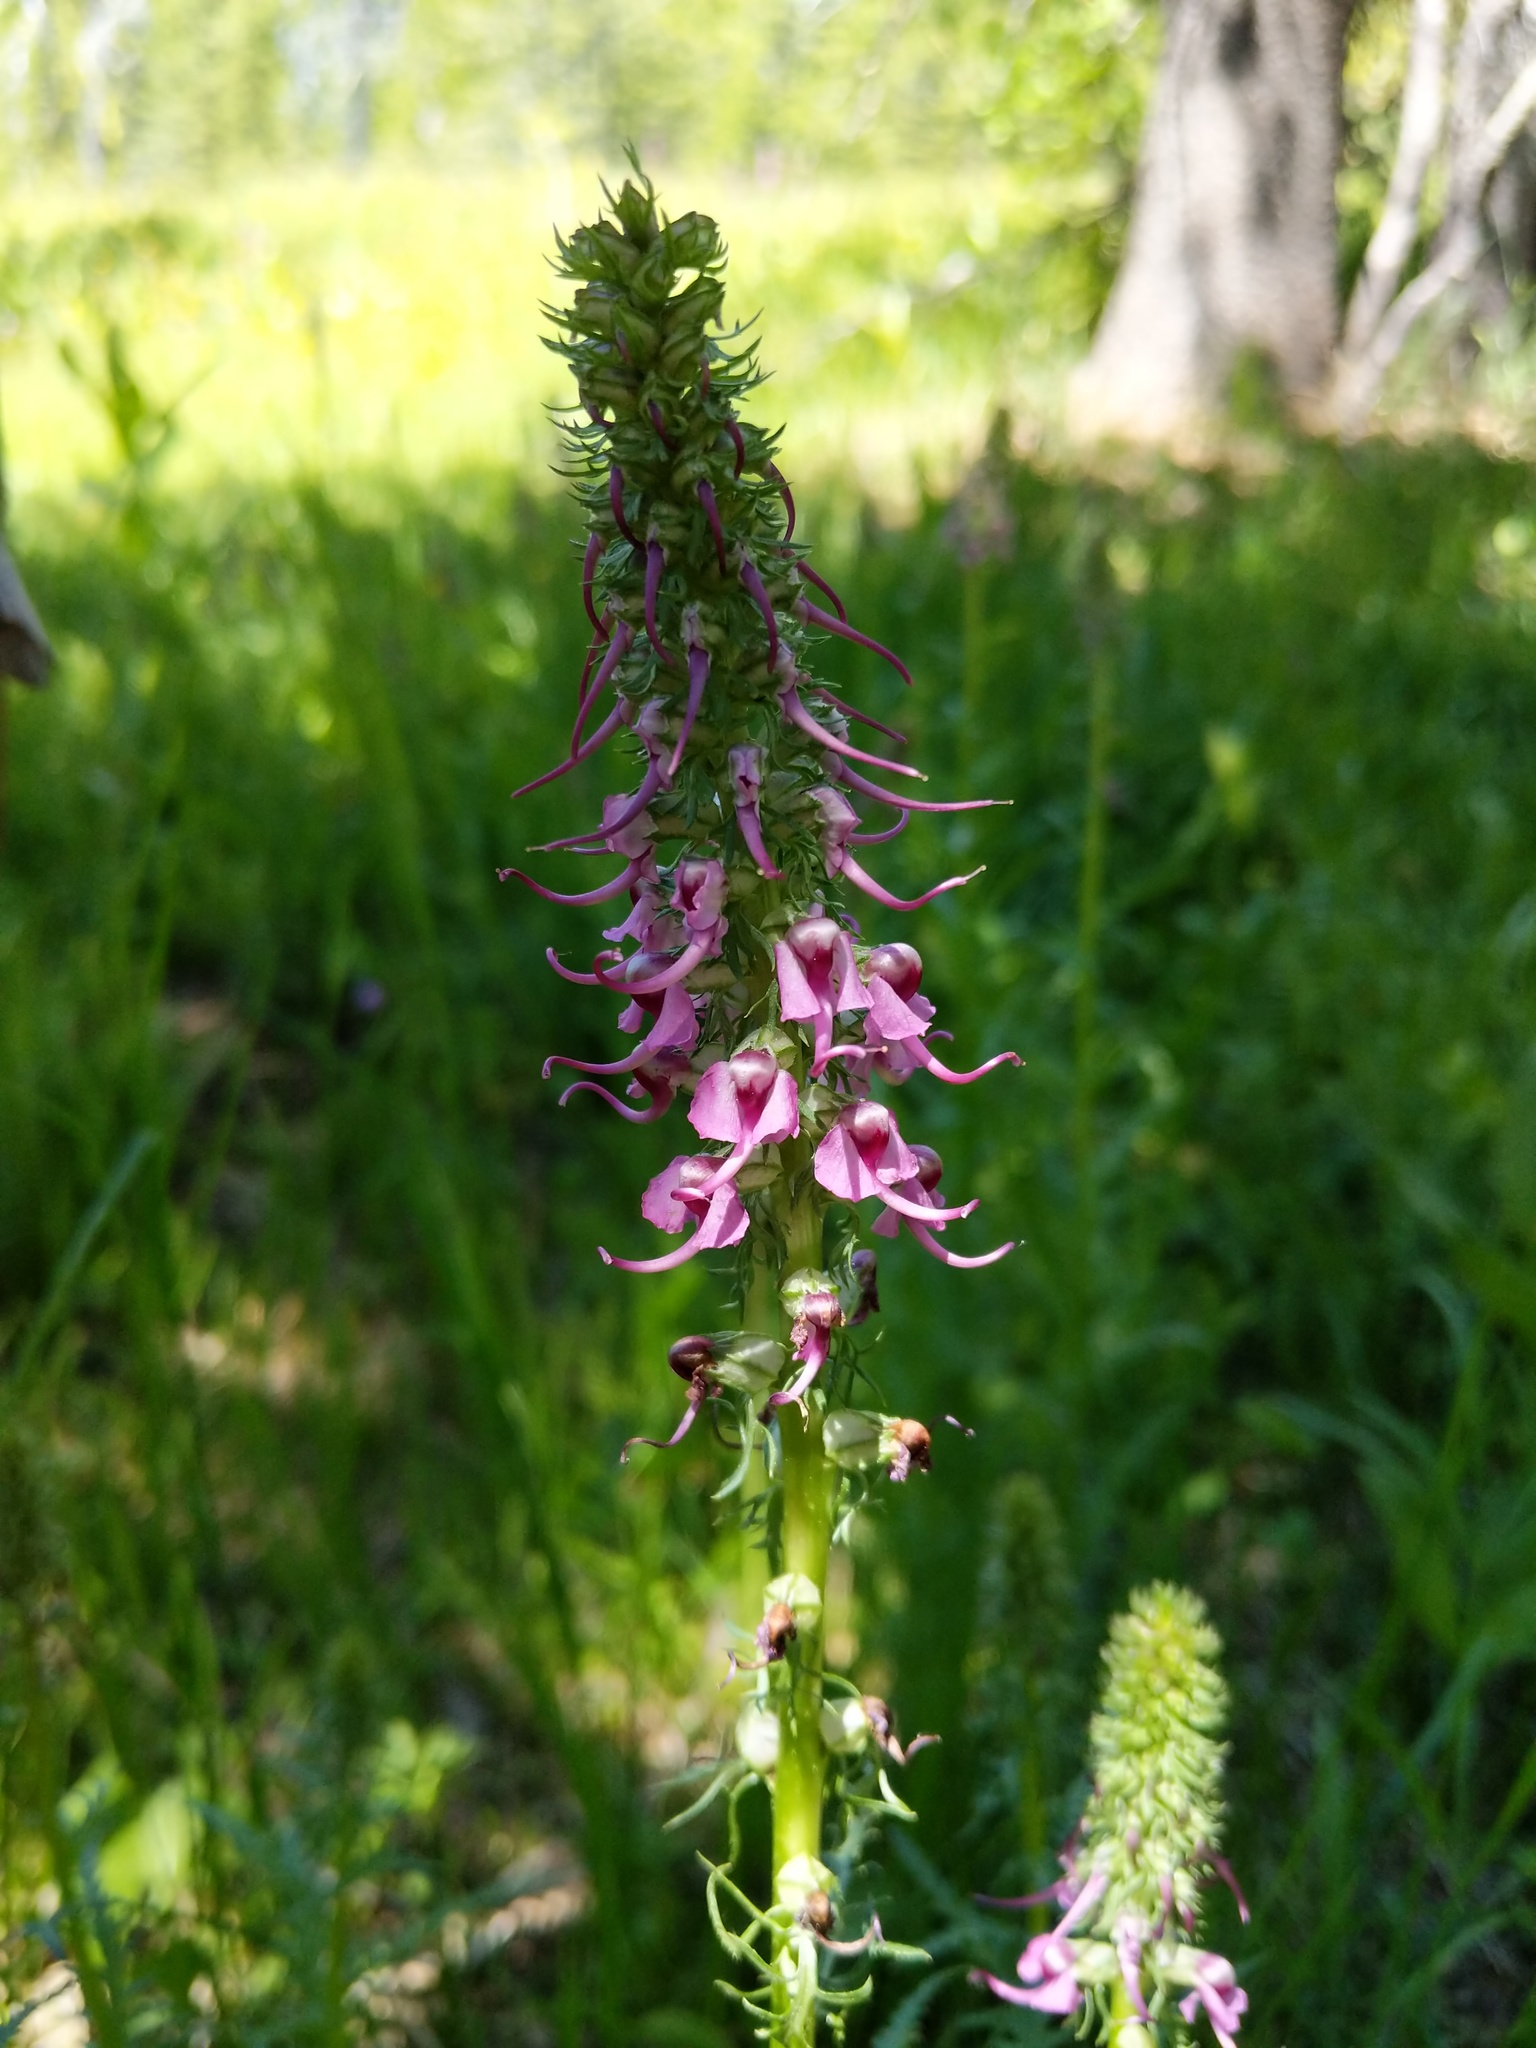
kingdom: Plantae
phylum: Tracheophyta
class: Magnoliopsida
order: Lamiales
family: Orobanchaceae
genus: Pedicularis
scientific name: Pedicularis groenlandica
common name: Elephant's-head
